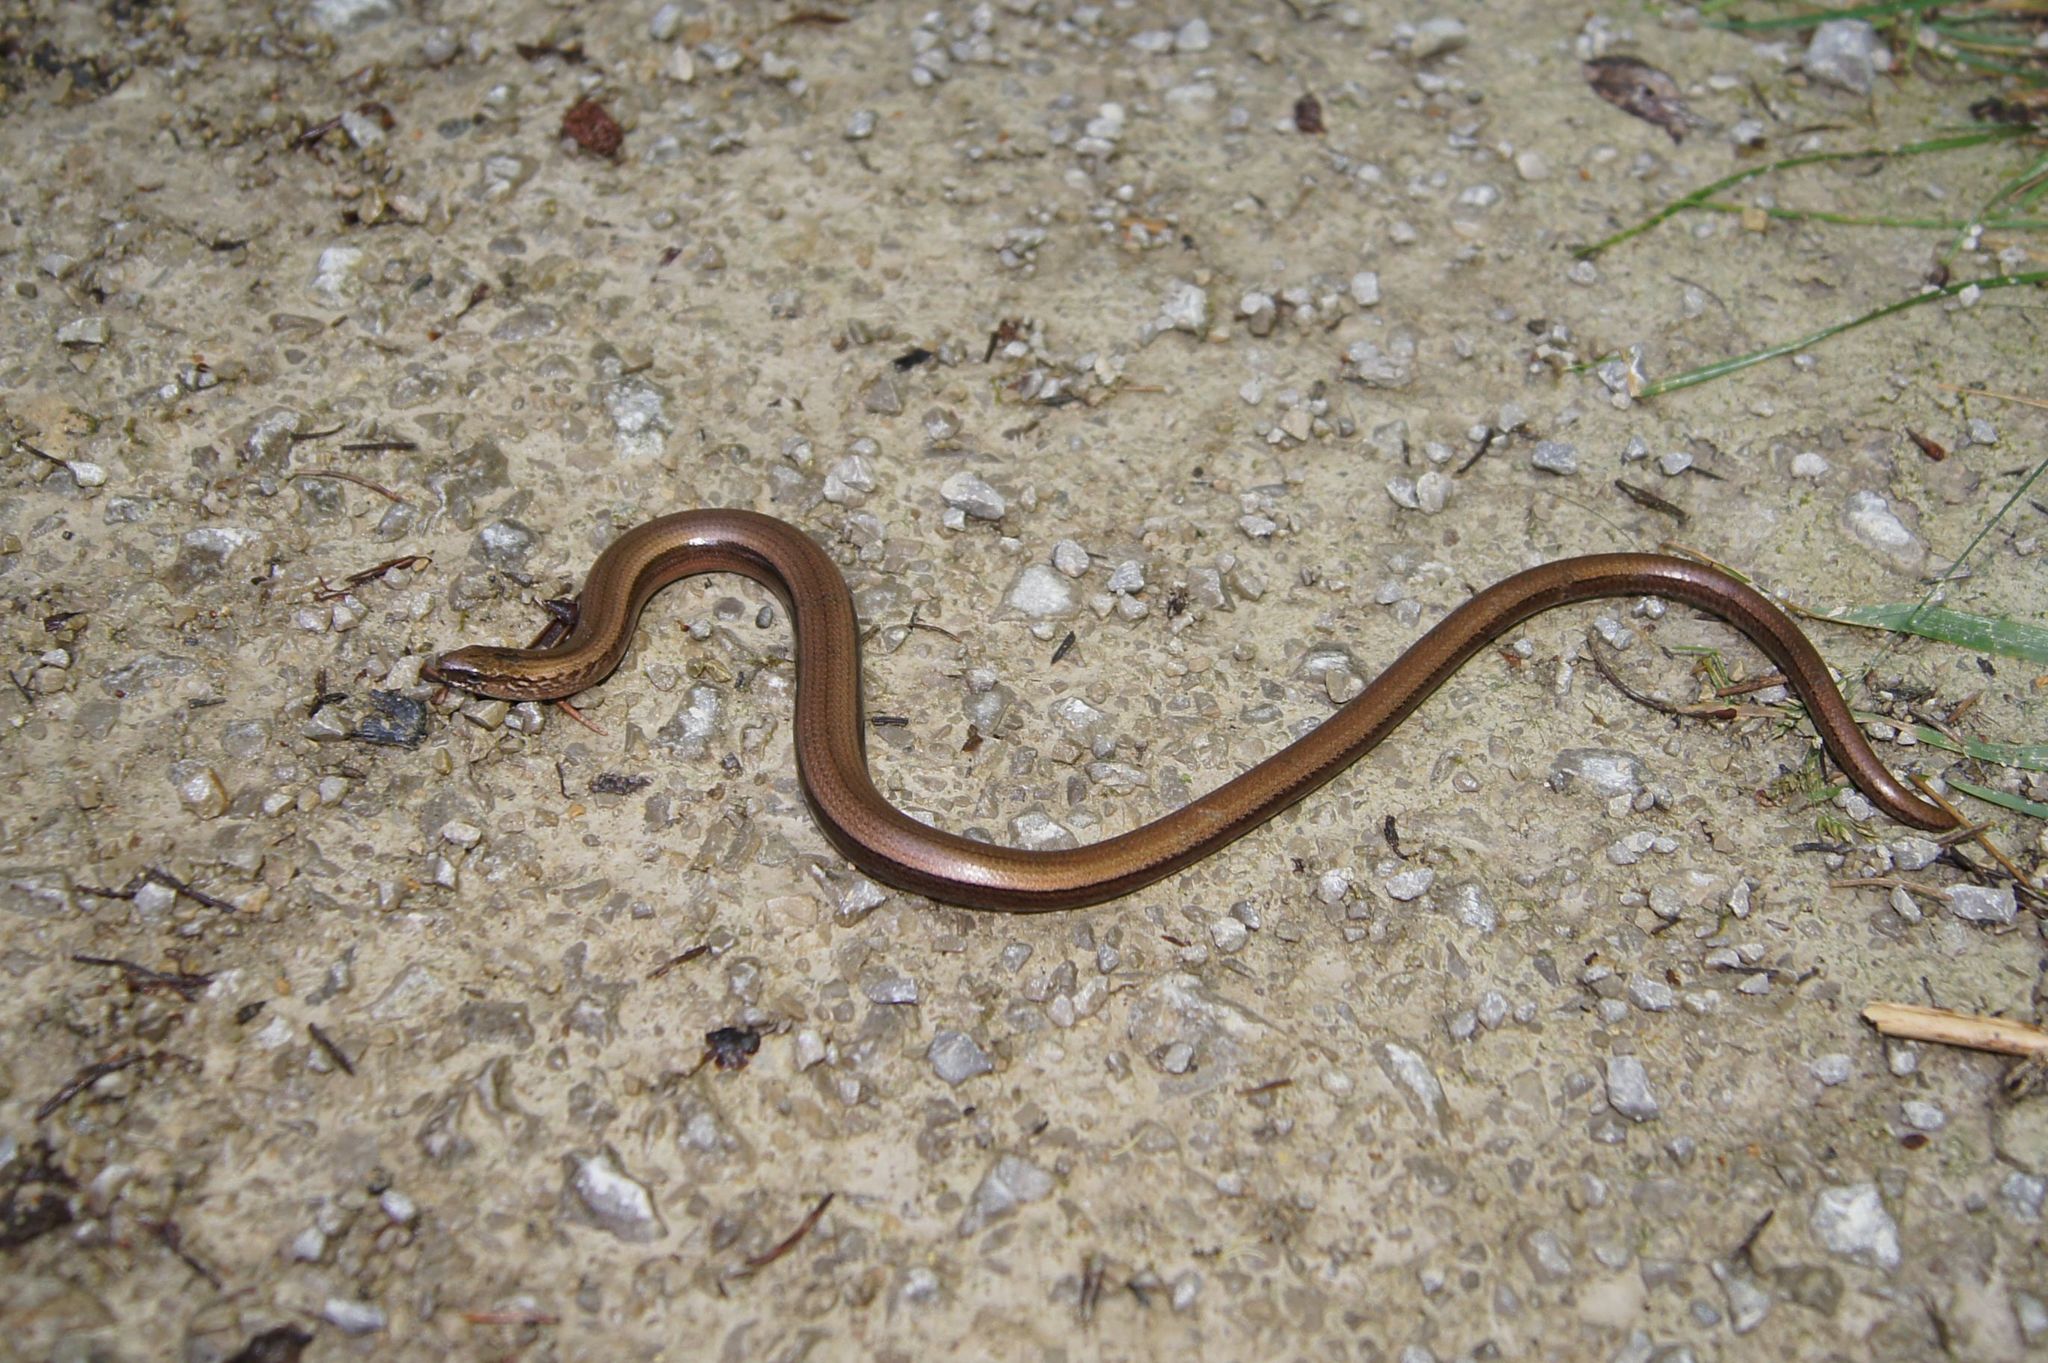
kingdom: Animalia
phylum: Chordata
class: Squamata
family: Anguidae
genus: Anguis
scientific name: Anguis fragilis
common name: Slow worm
